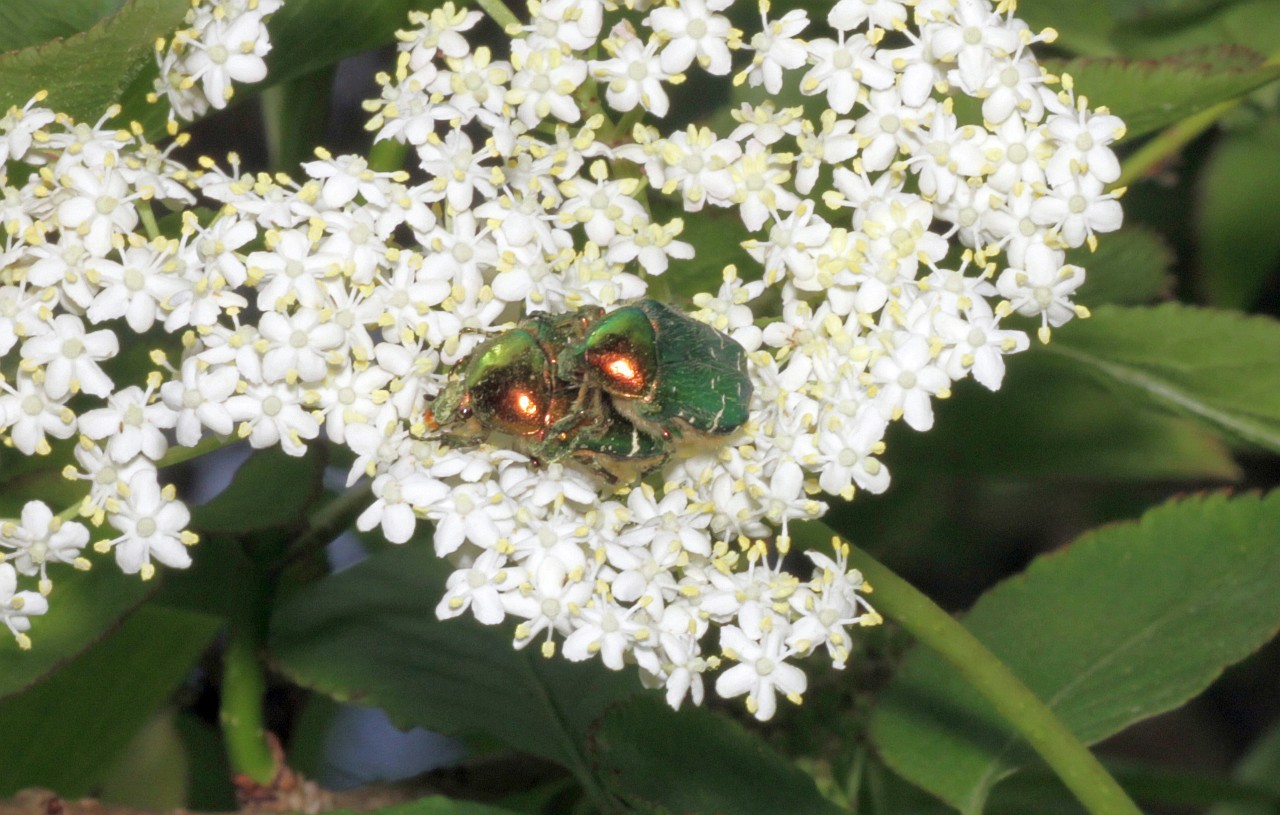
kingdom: Animalia
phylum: Arthropoda
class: Insecta
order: Coleoptera
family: Scarabaeidae
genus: Cetonia
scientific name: Cetonia aurata
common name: Rose chafer
